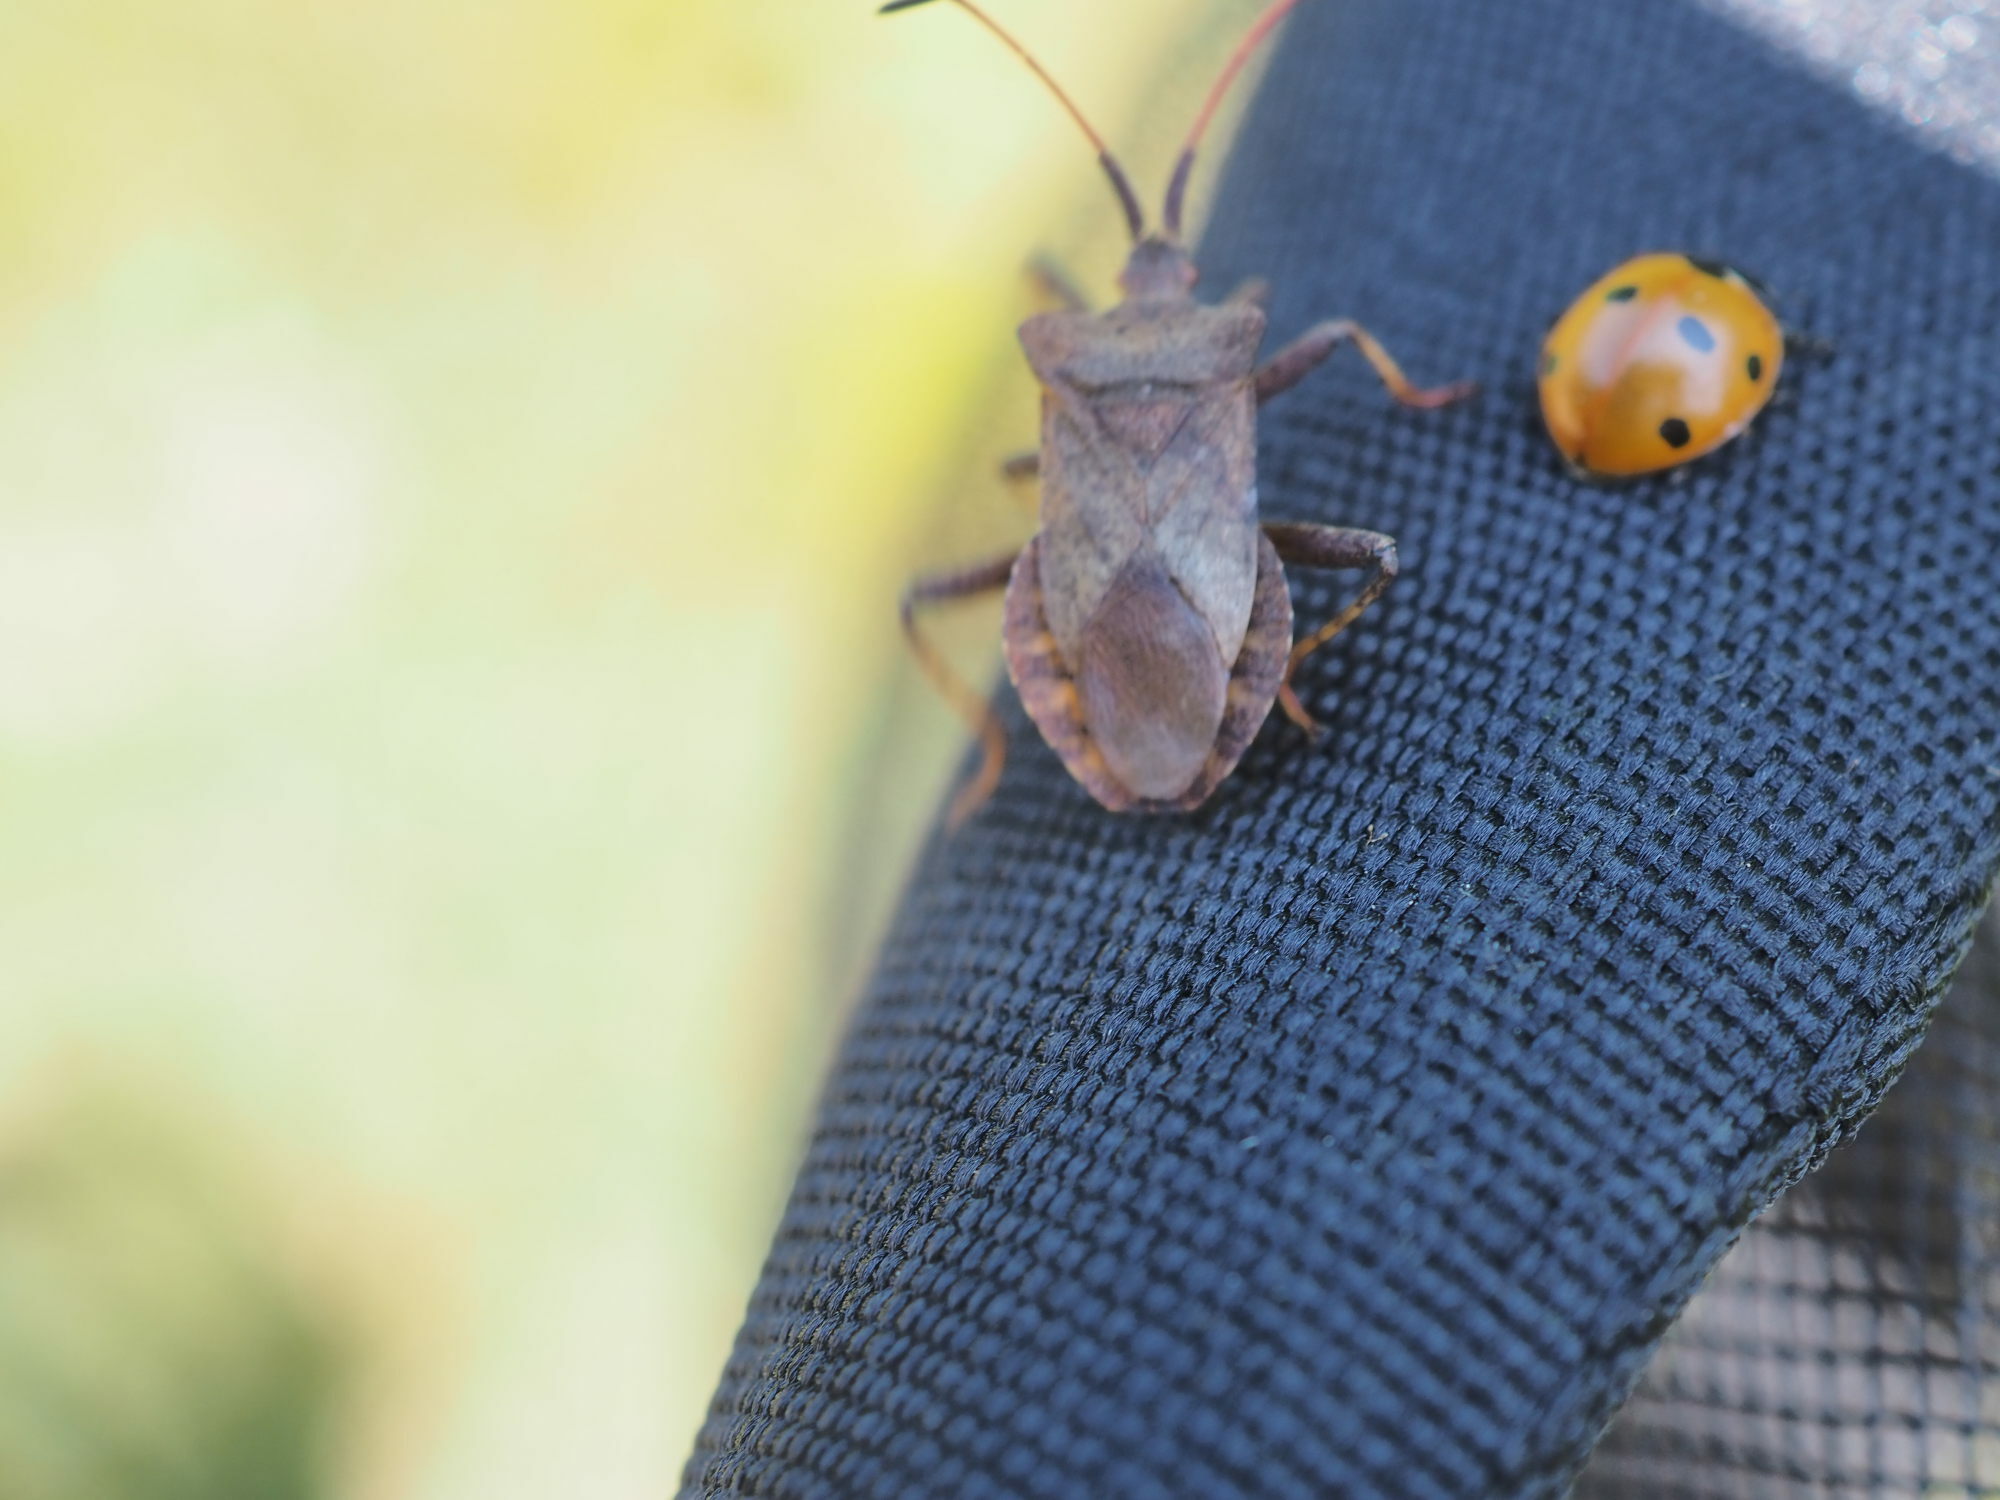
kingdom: Animalia
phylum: Arthropoda
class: Insecta
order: Hemiptera
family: Coreidae
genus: Coreus
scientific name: Coreus marginatus
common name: Dock bug
